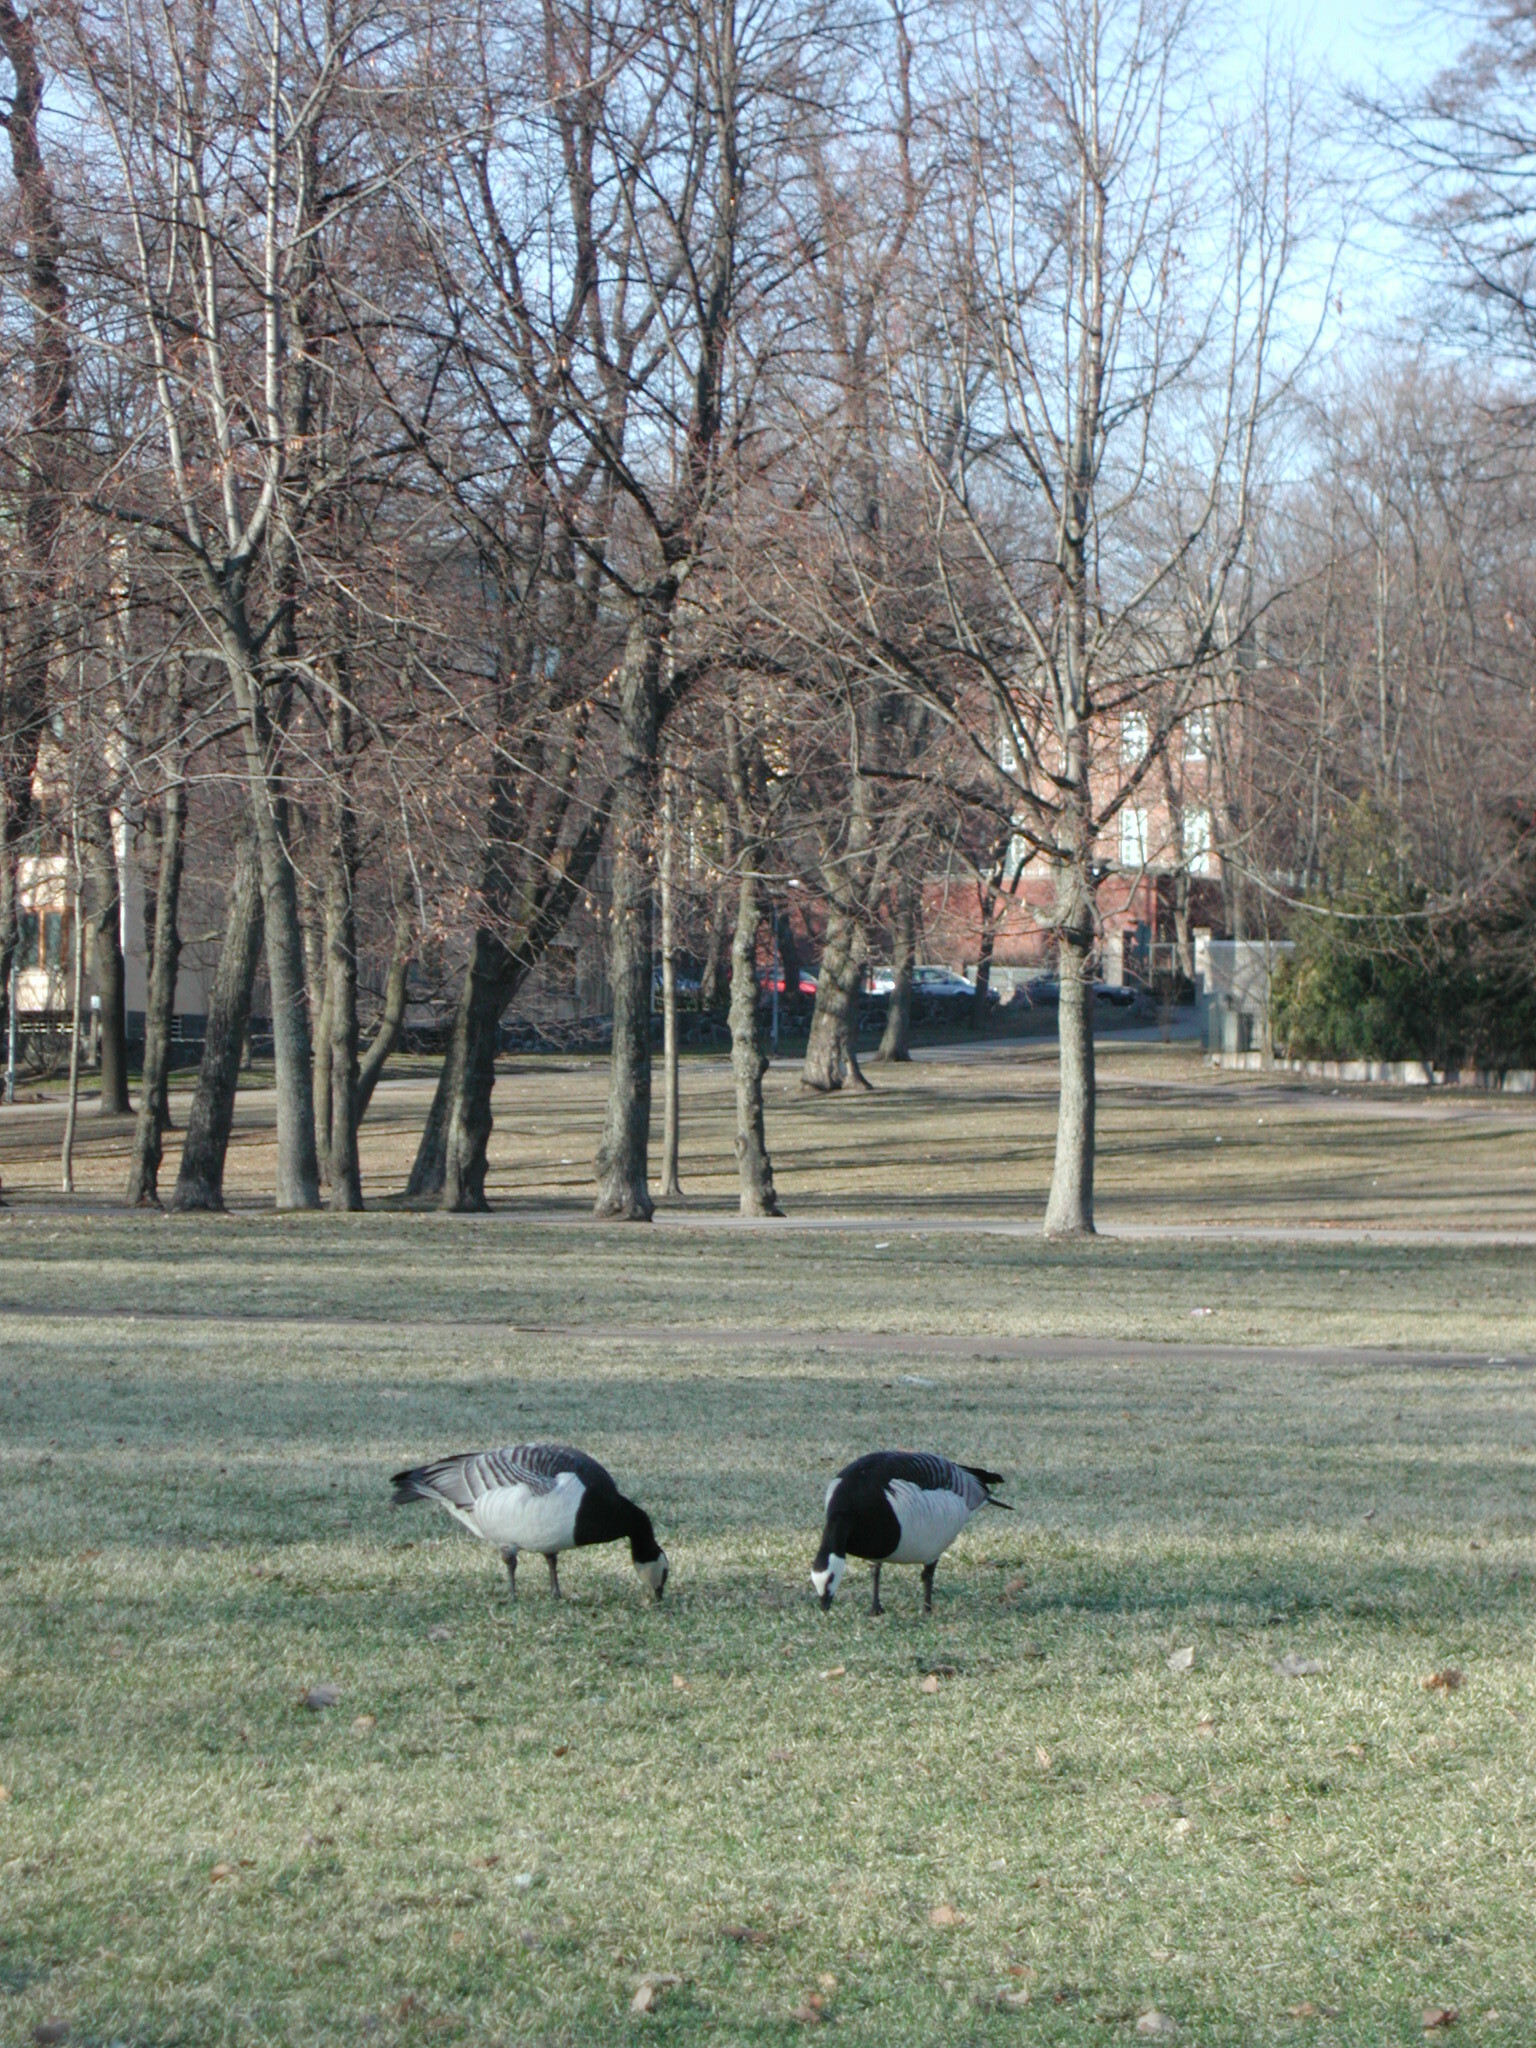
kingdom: Animalia
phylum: Chordata
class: Aves
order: Anseriformes
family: Anatidae
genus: Branta
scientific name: Branta leucopsis
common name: Barnacle goose
